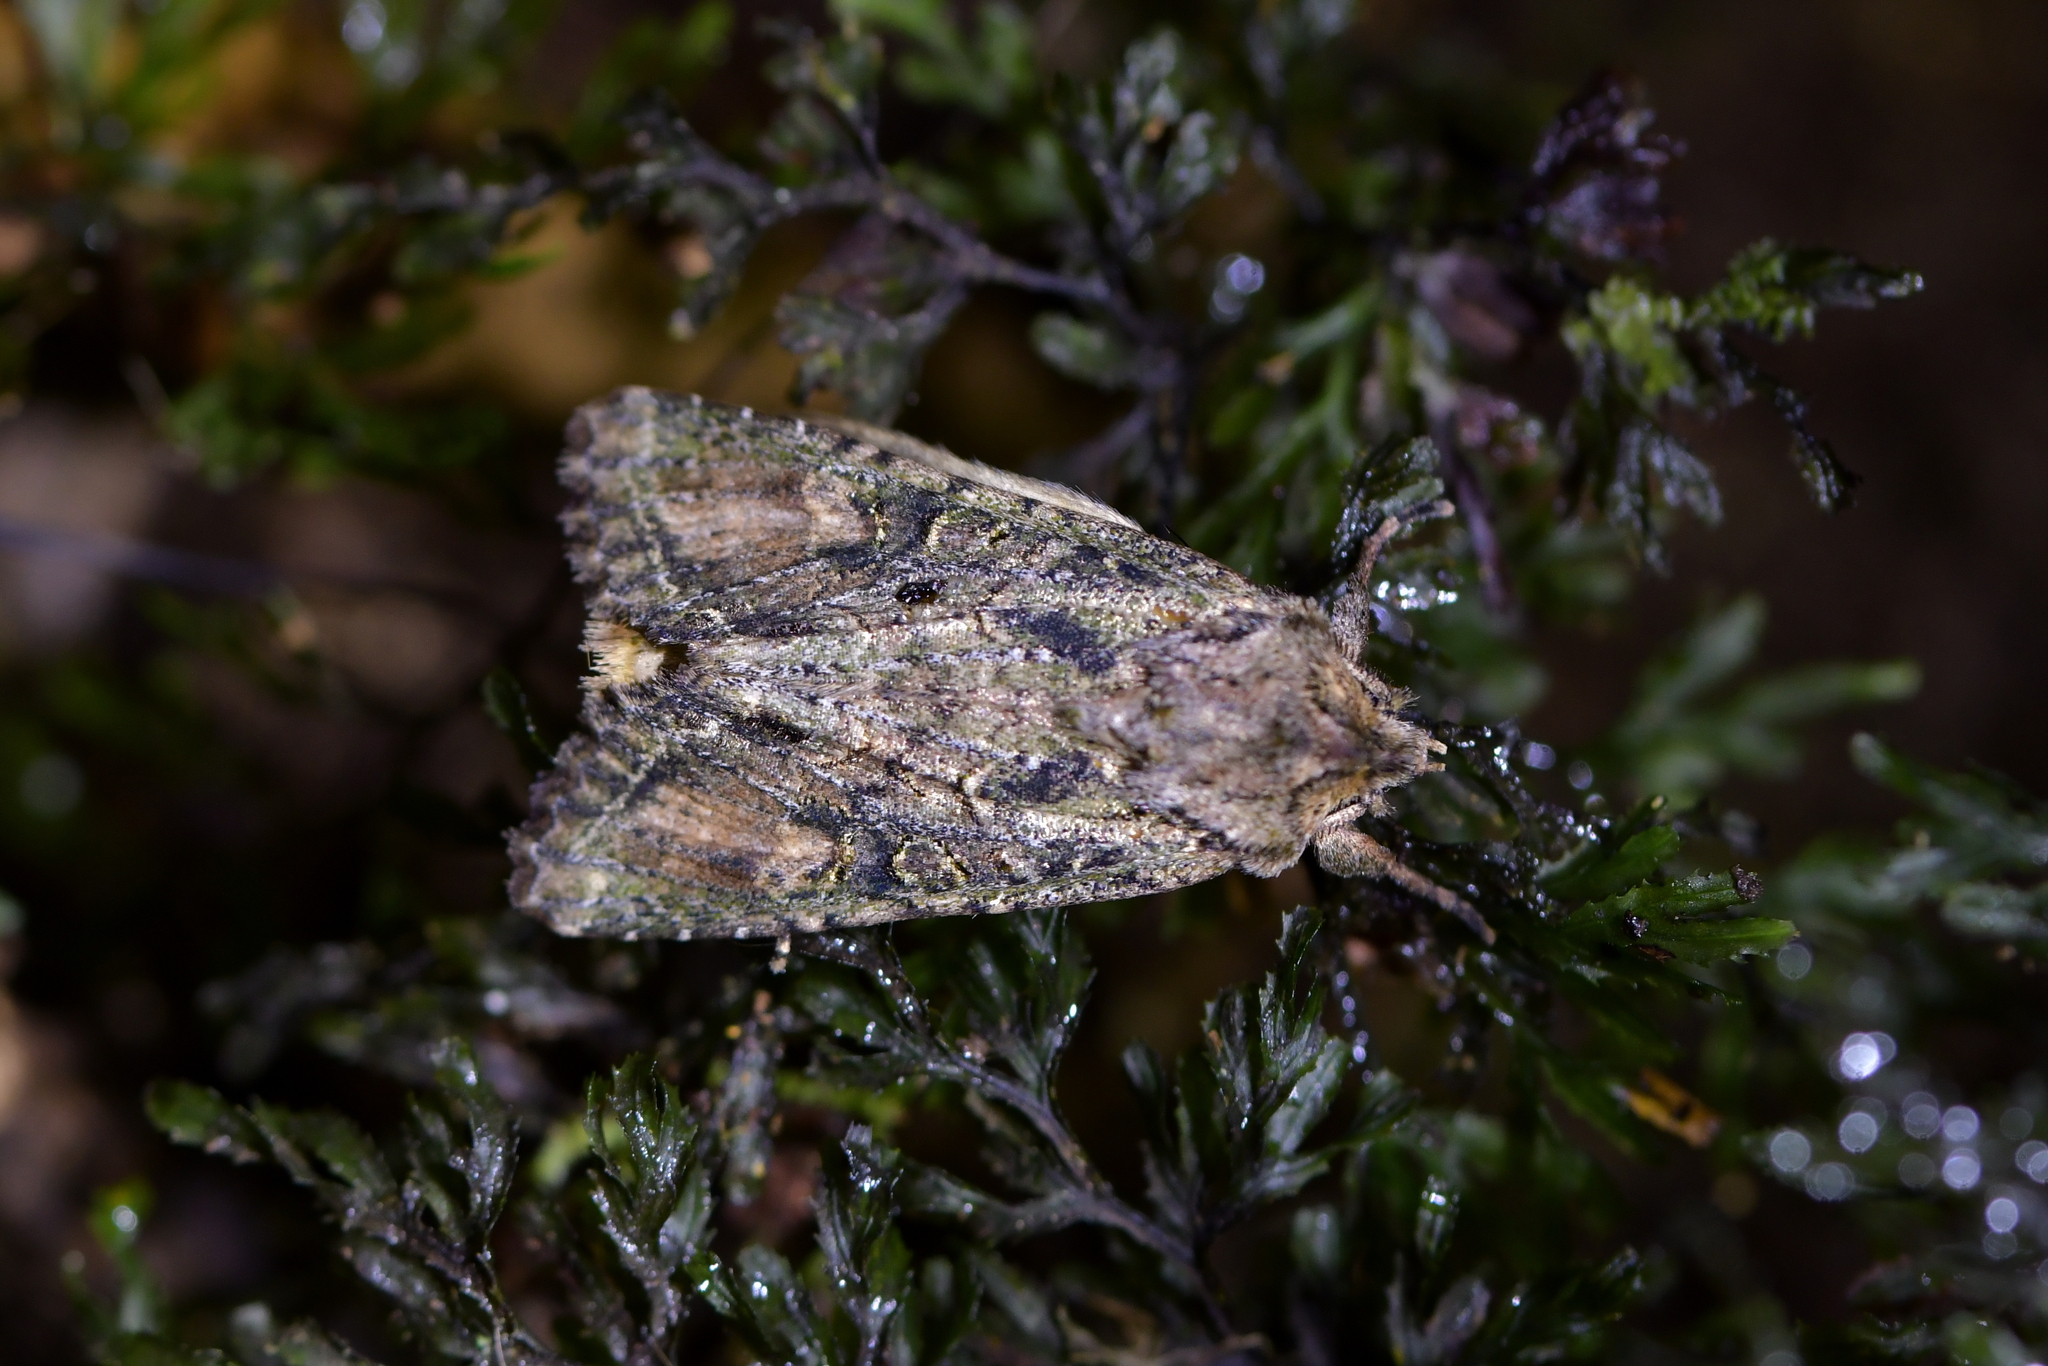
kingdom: Animalia
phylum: Arthropoda
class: Insecta
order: Lepidoptera
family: Noctuidae
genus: Ichneutica
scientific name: Ichneutica mutans
